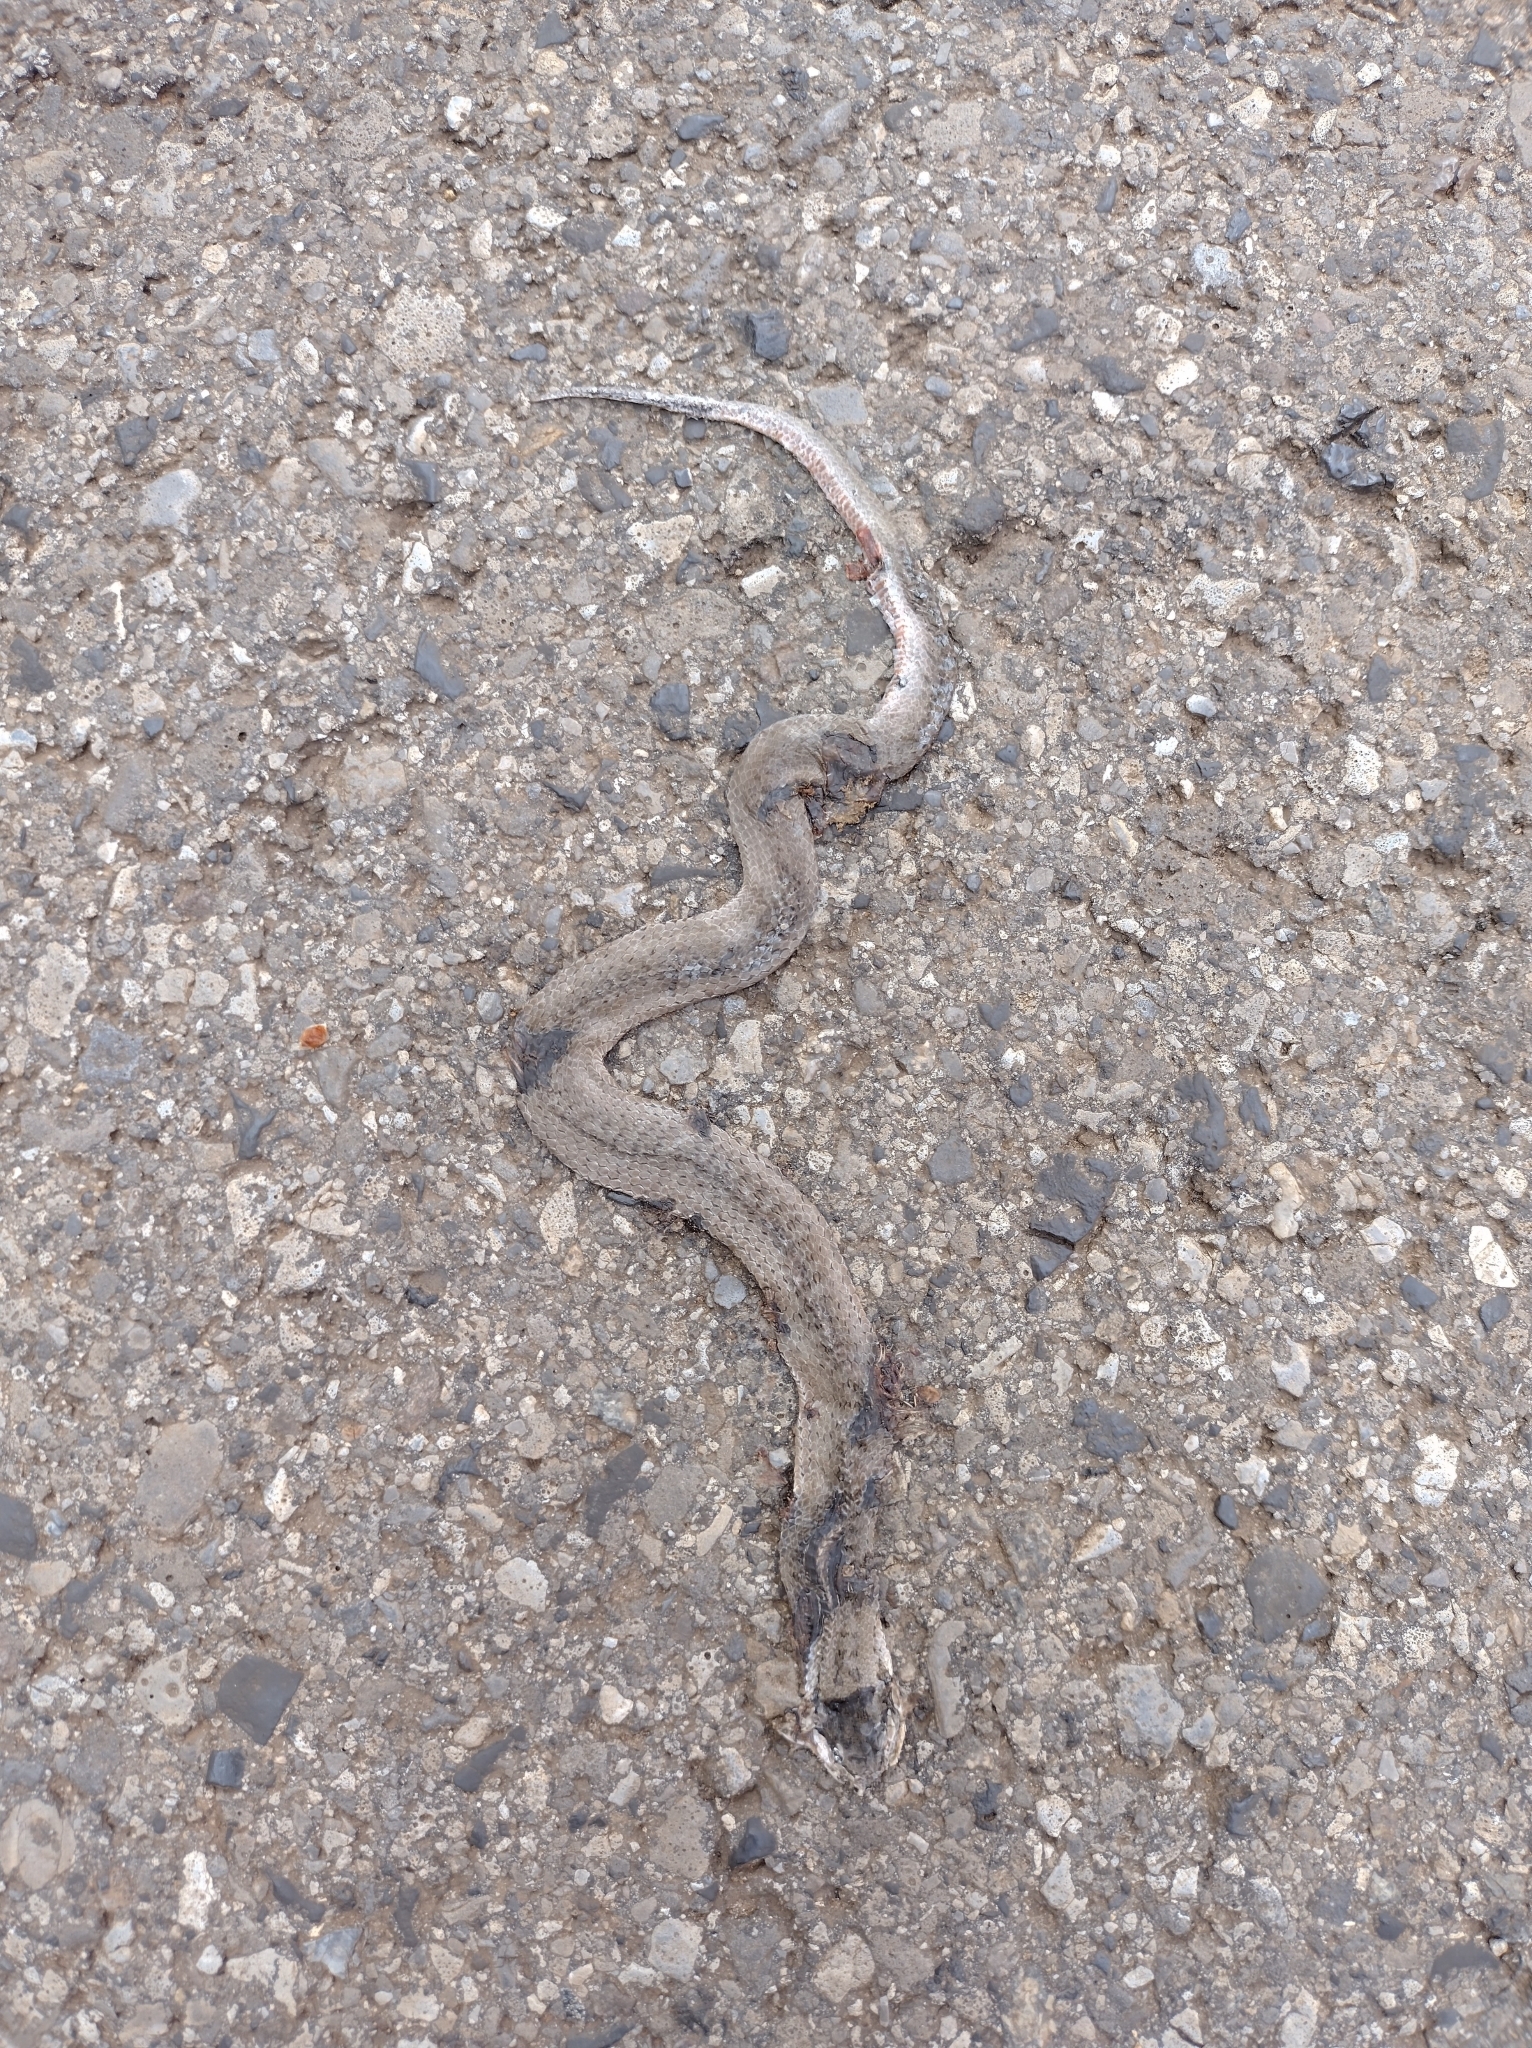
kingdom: Animalia
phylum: Chordata
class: Squamata
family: Colubridae
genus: Coronella
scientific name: Coronella austriaca
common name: Smooth snake
